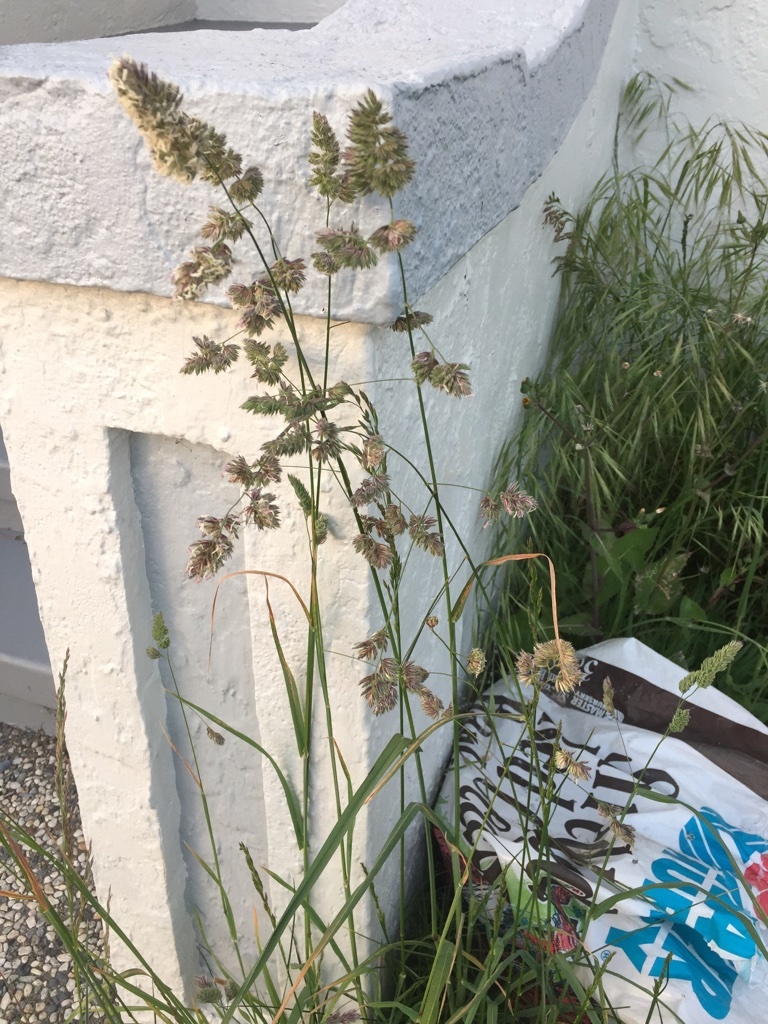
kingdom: Plantae
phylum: Tracheophyta
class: Liliopsida
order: Poales
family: Poaceae
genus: Dactylis
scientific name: Dactylis glomerata
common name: Orchardgrass
